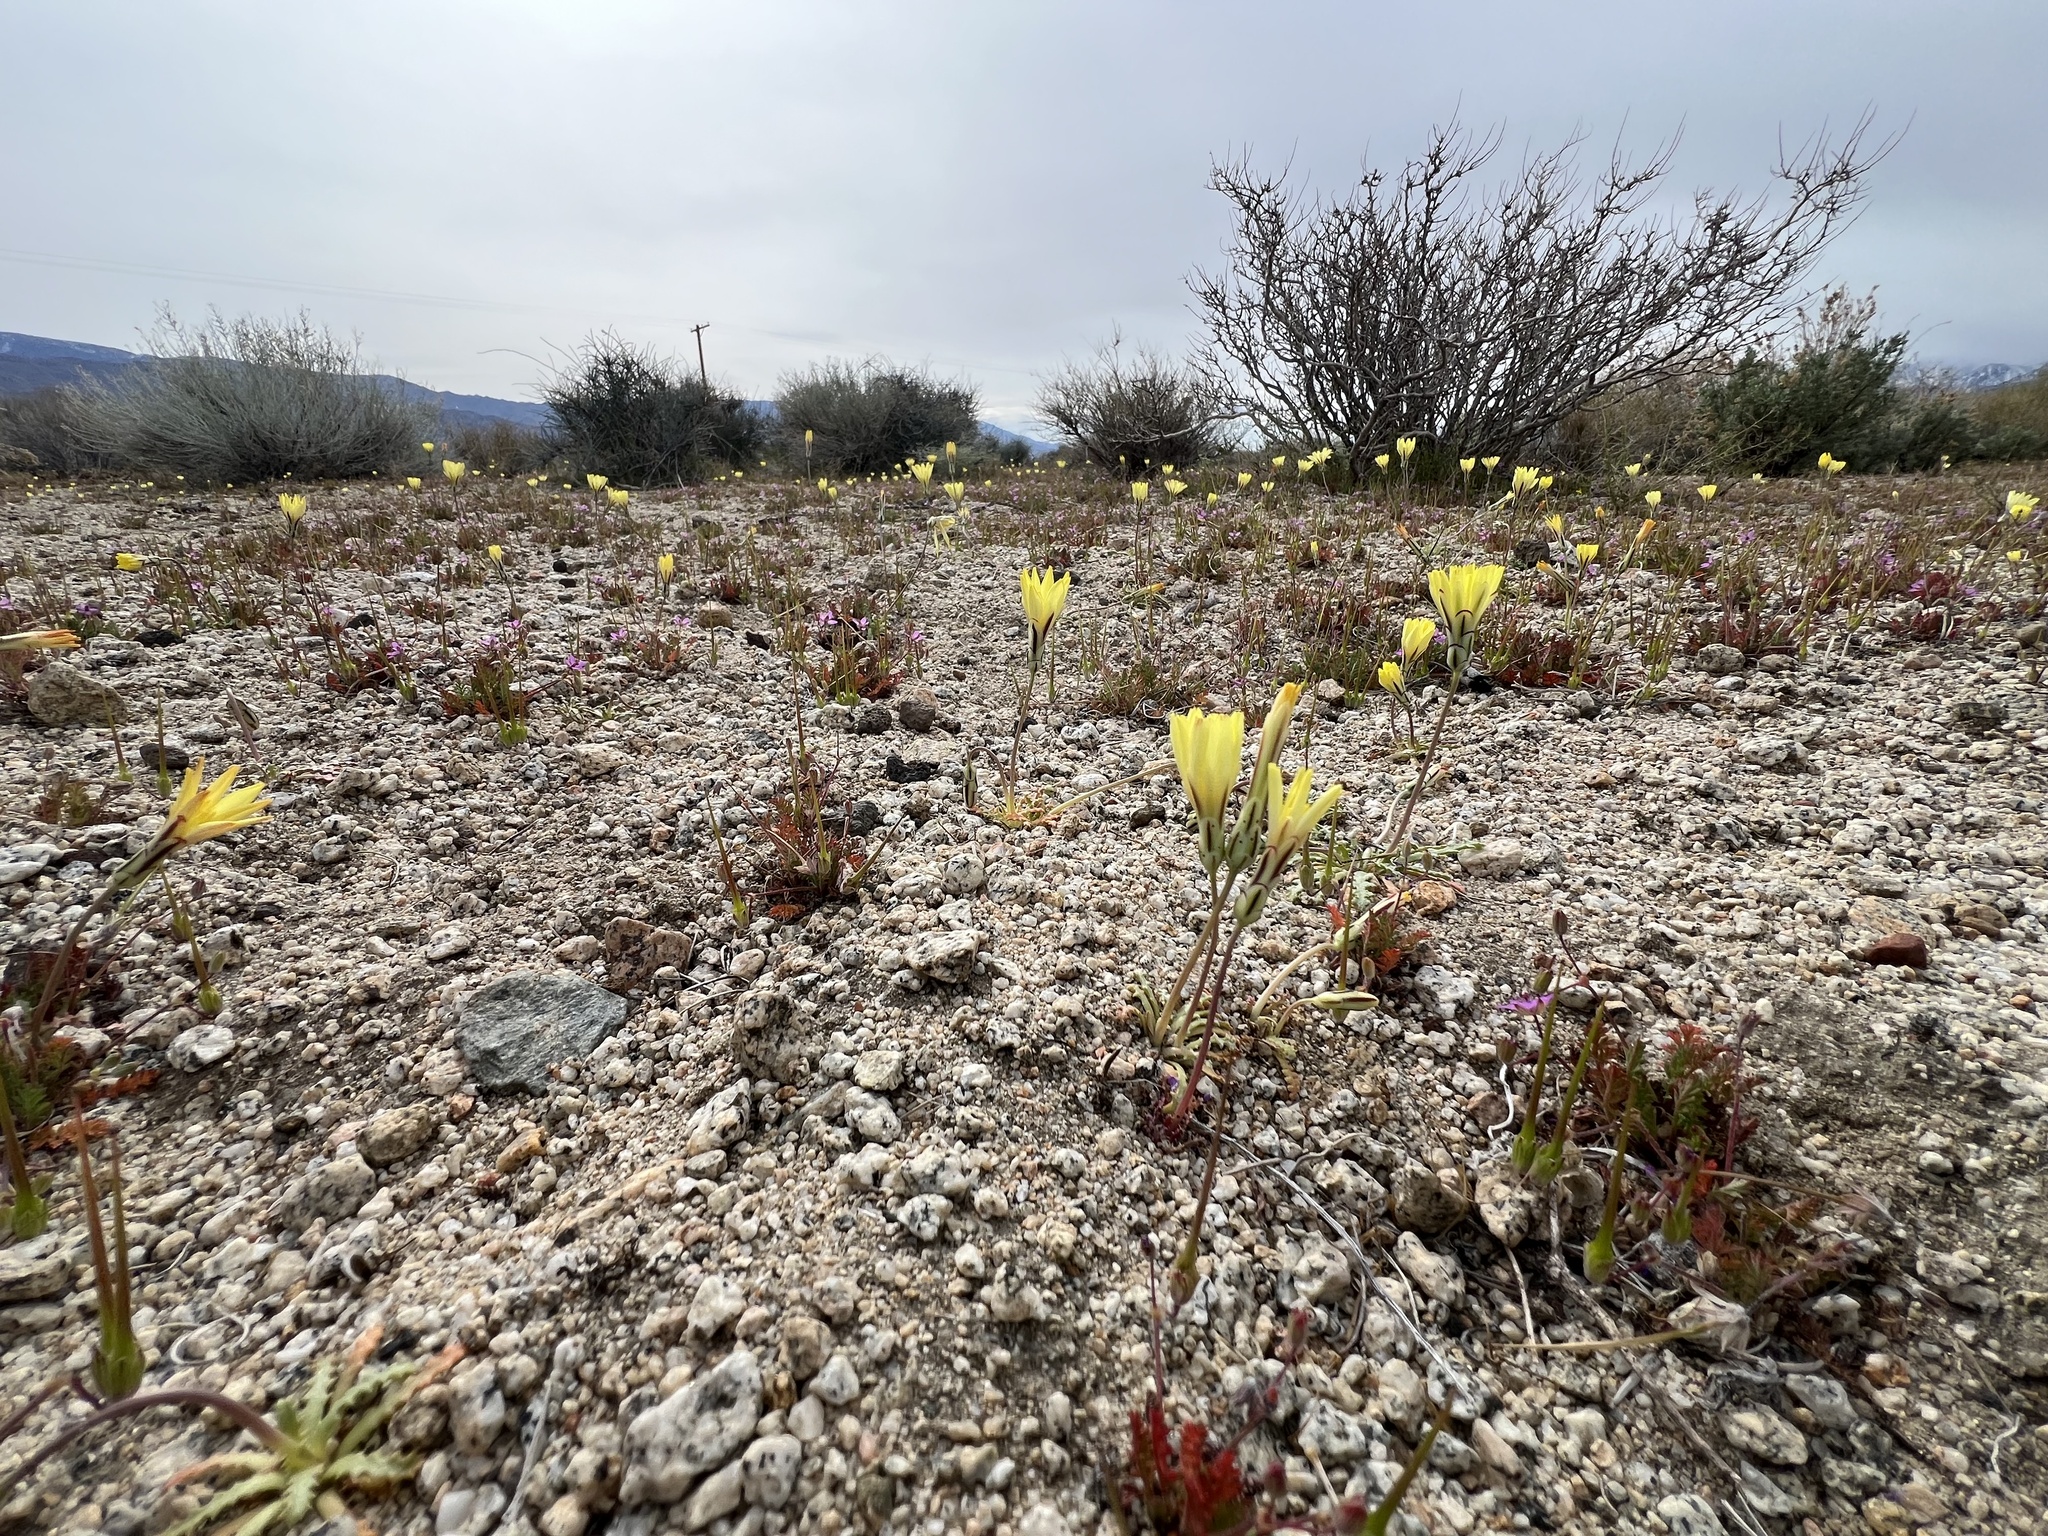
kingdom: Plantae
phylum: Tracheophyta
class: Magnoliopsida
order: Asterales
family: Asteraceae
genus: Anisocoma
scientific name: Anisocoma acaulis
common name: Scalebud
